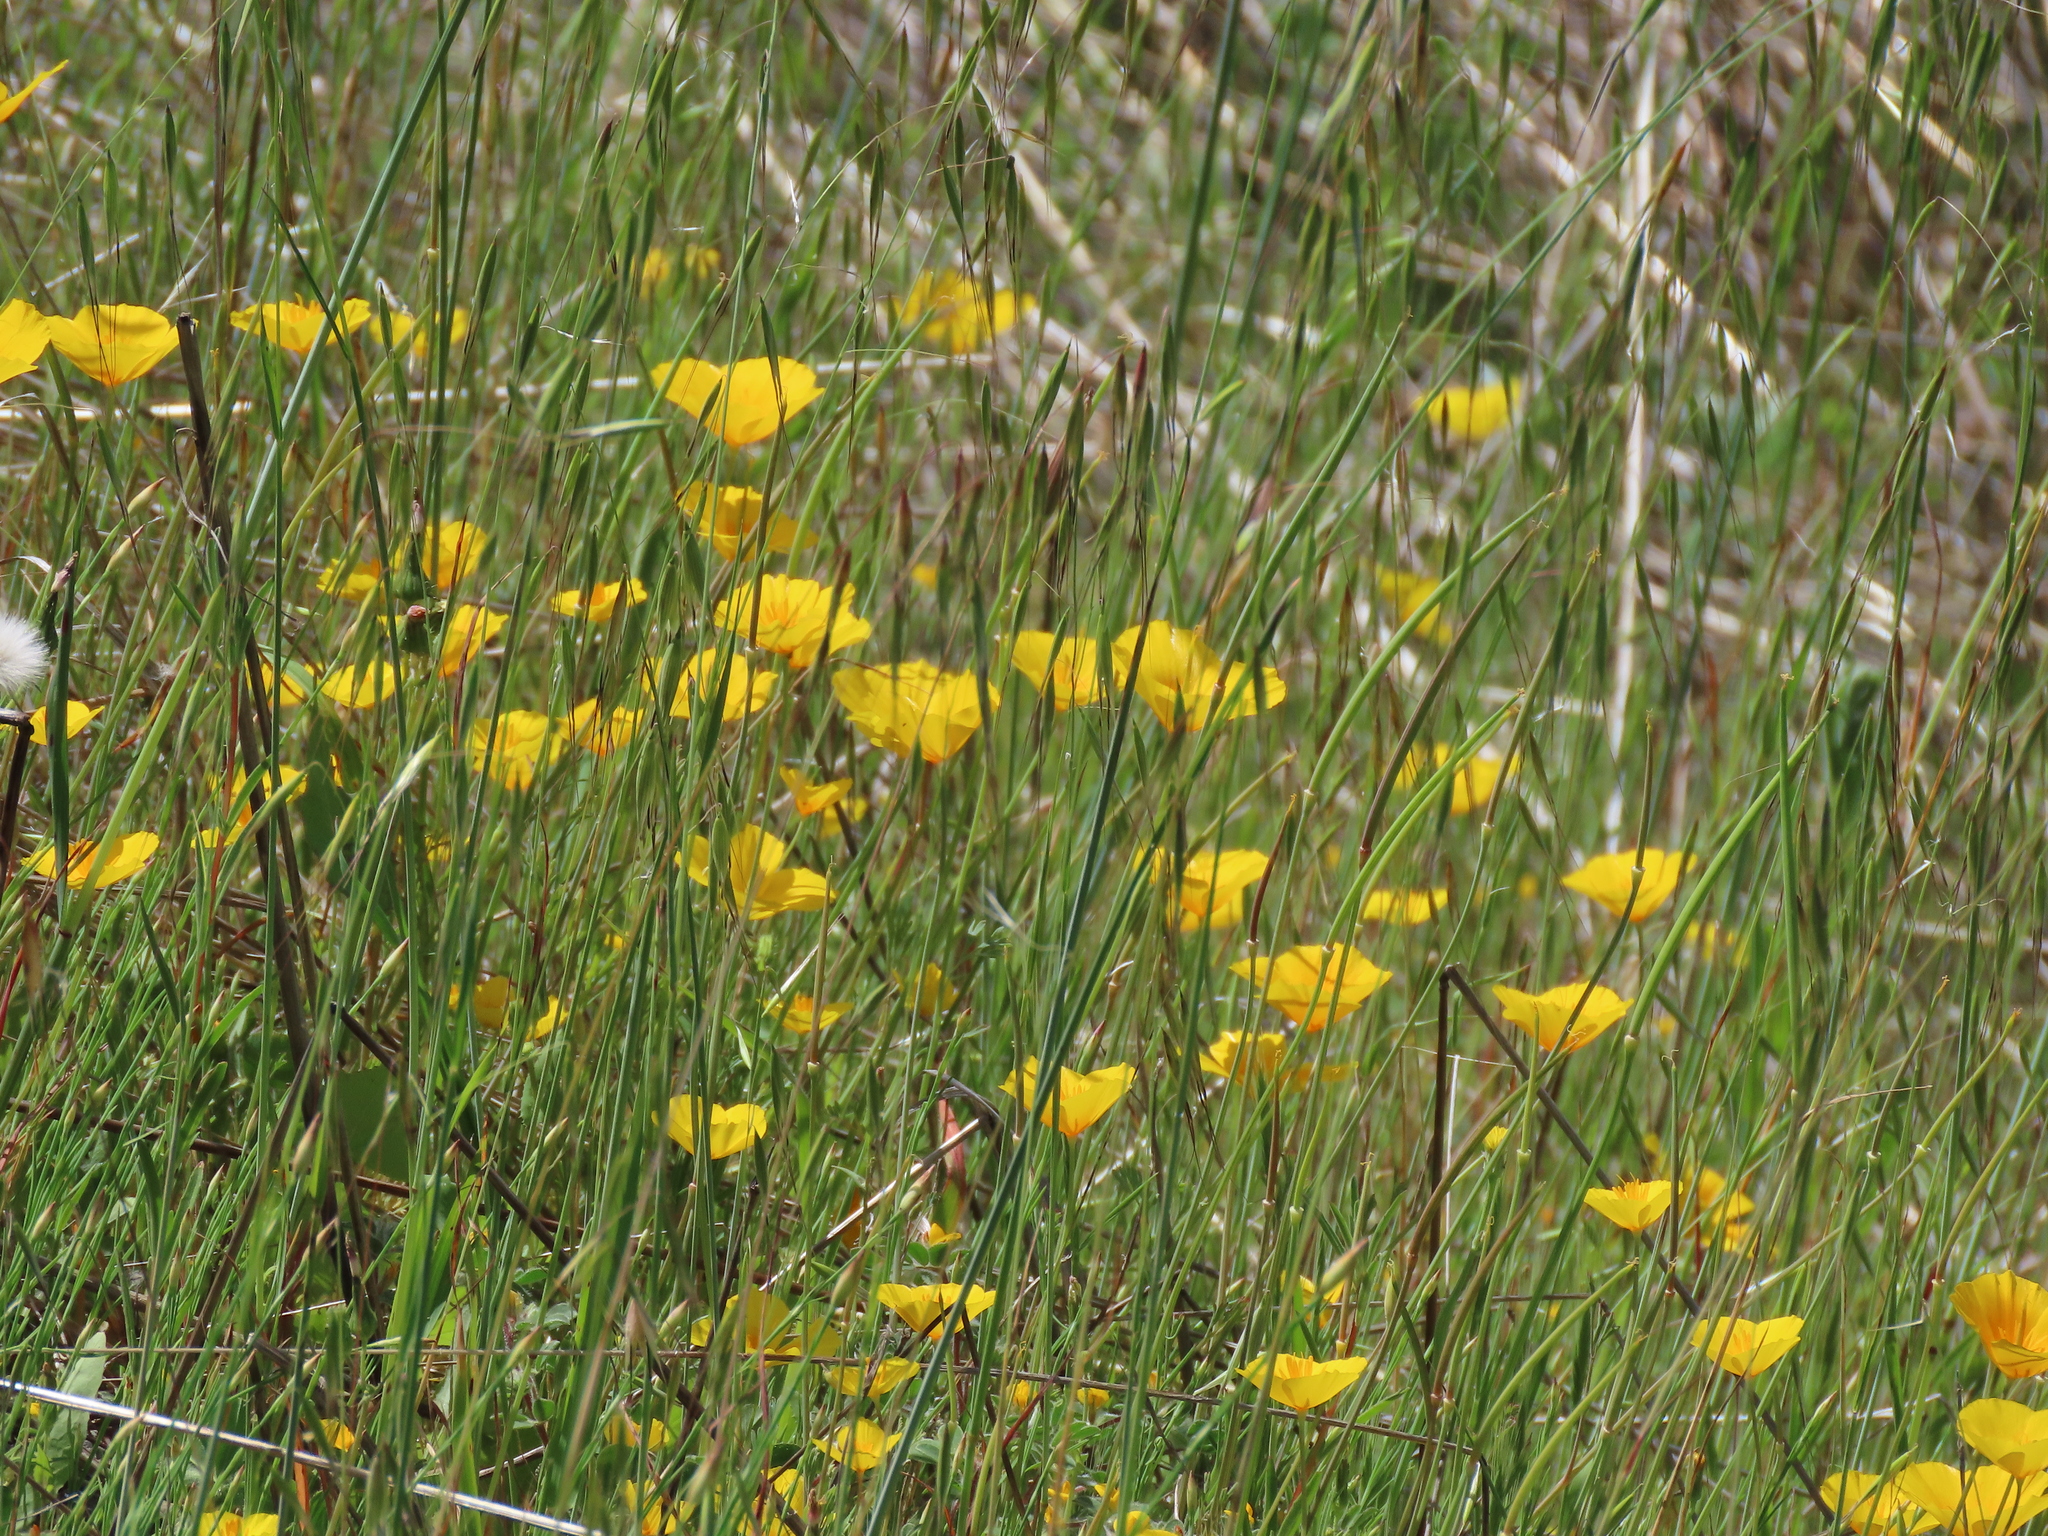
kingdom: Plantae
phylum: Tracheophyta
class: Magnoliopsida
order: Ranunculales
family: Papaveraceae
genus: Eschscholzia
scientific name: Eschscholzia caespitosa
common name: Tufted california-poppy
